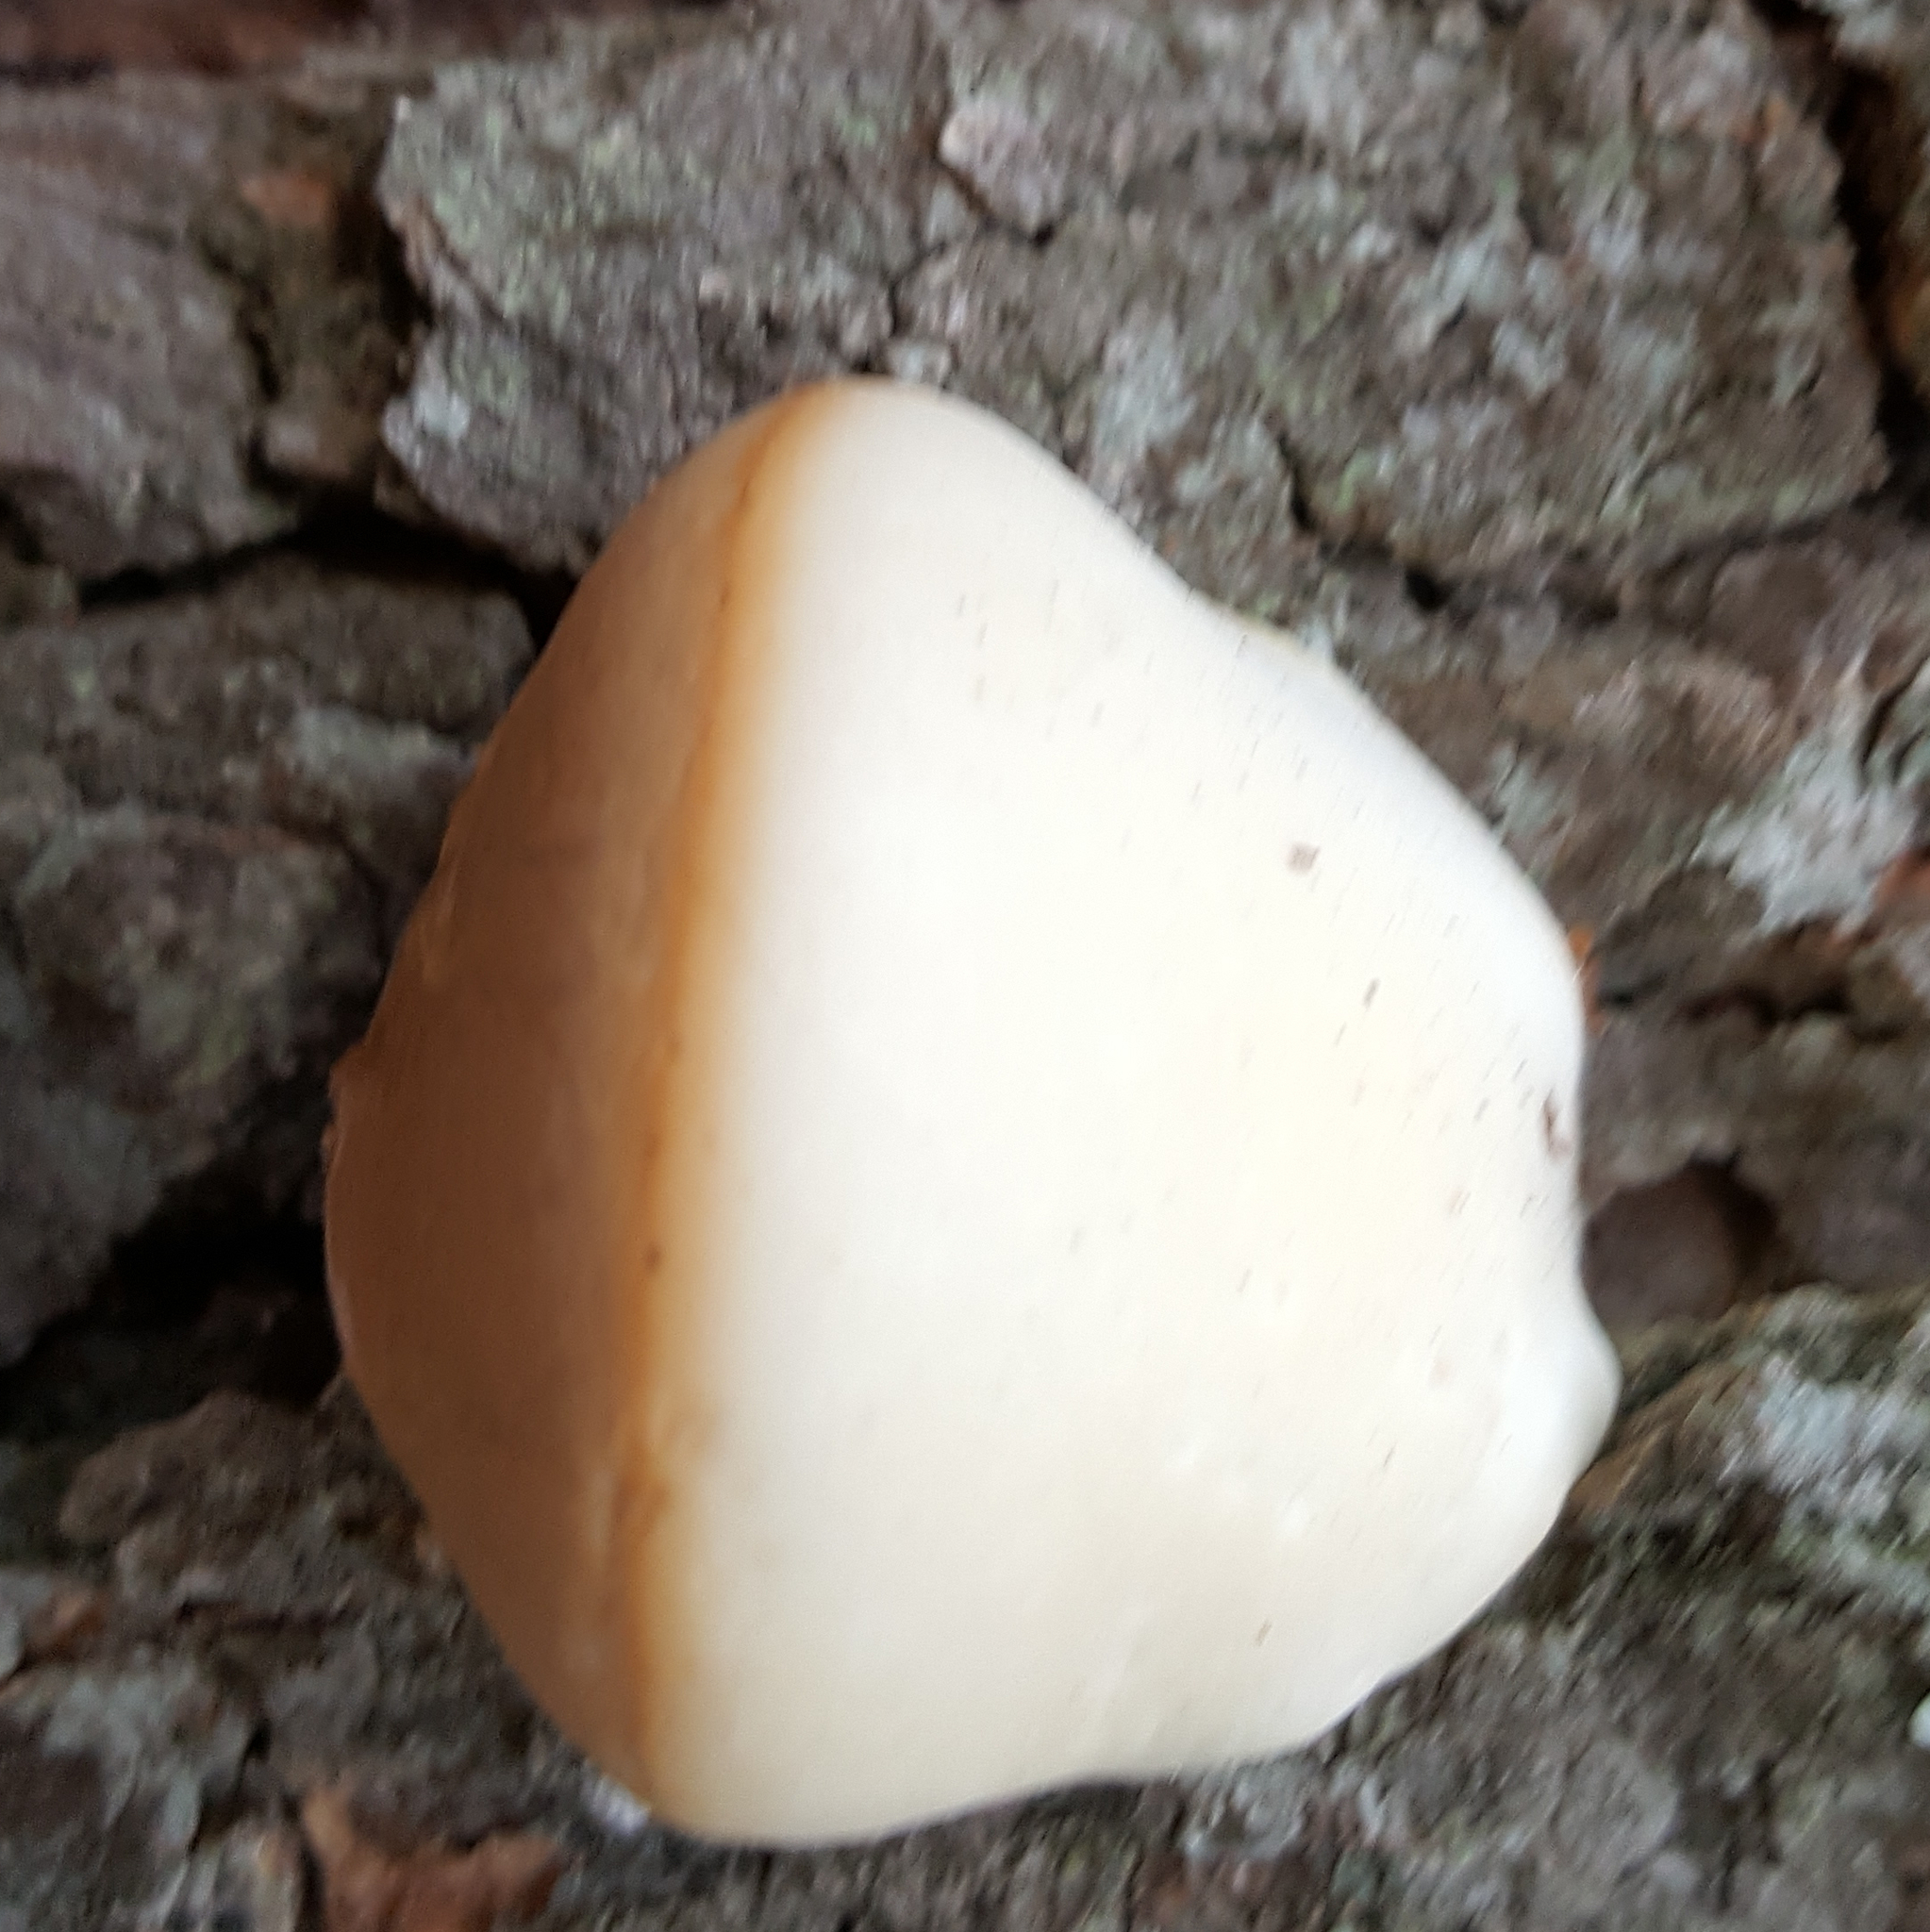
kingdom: Fungi
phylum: Basidiomycota
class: Agaricomycetes
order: Polyporales
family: Polyporaceae
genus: Cryptoporus
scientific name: Cryptoporus volvatus
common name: Veiled polypore
